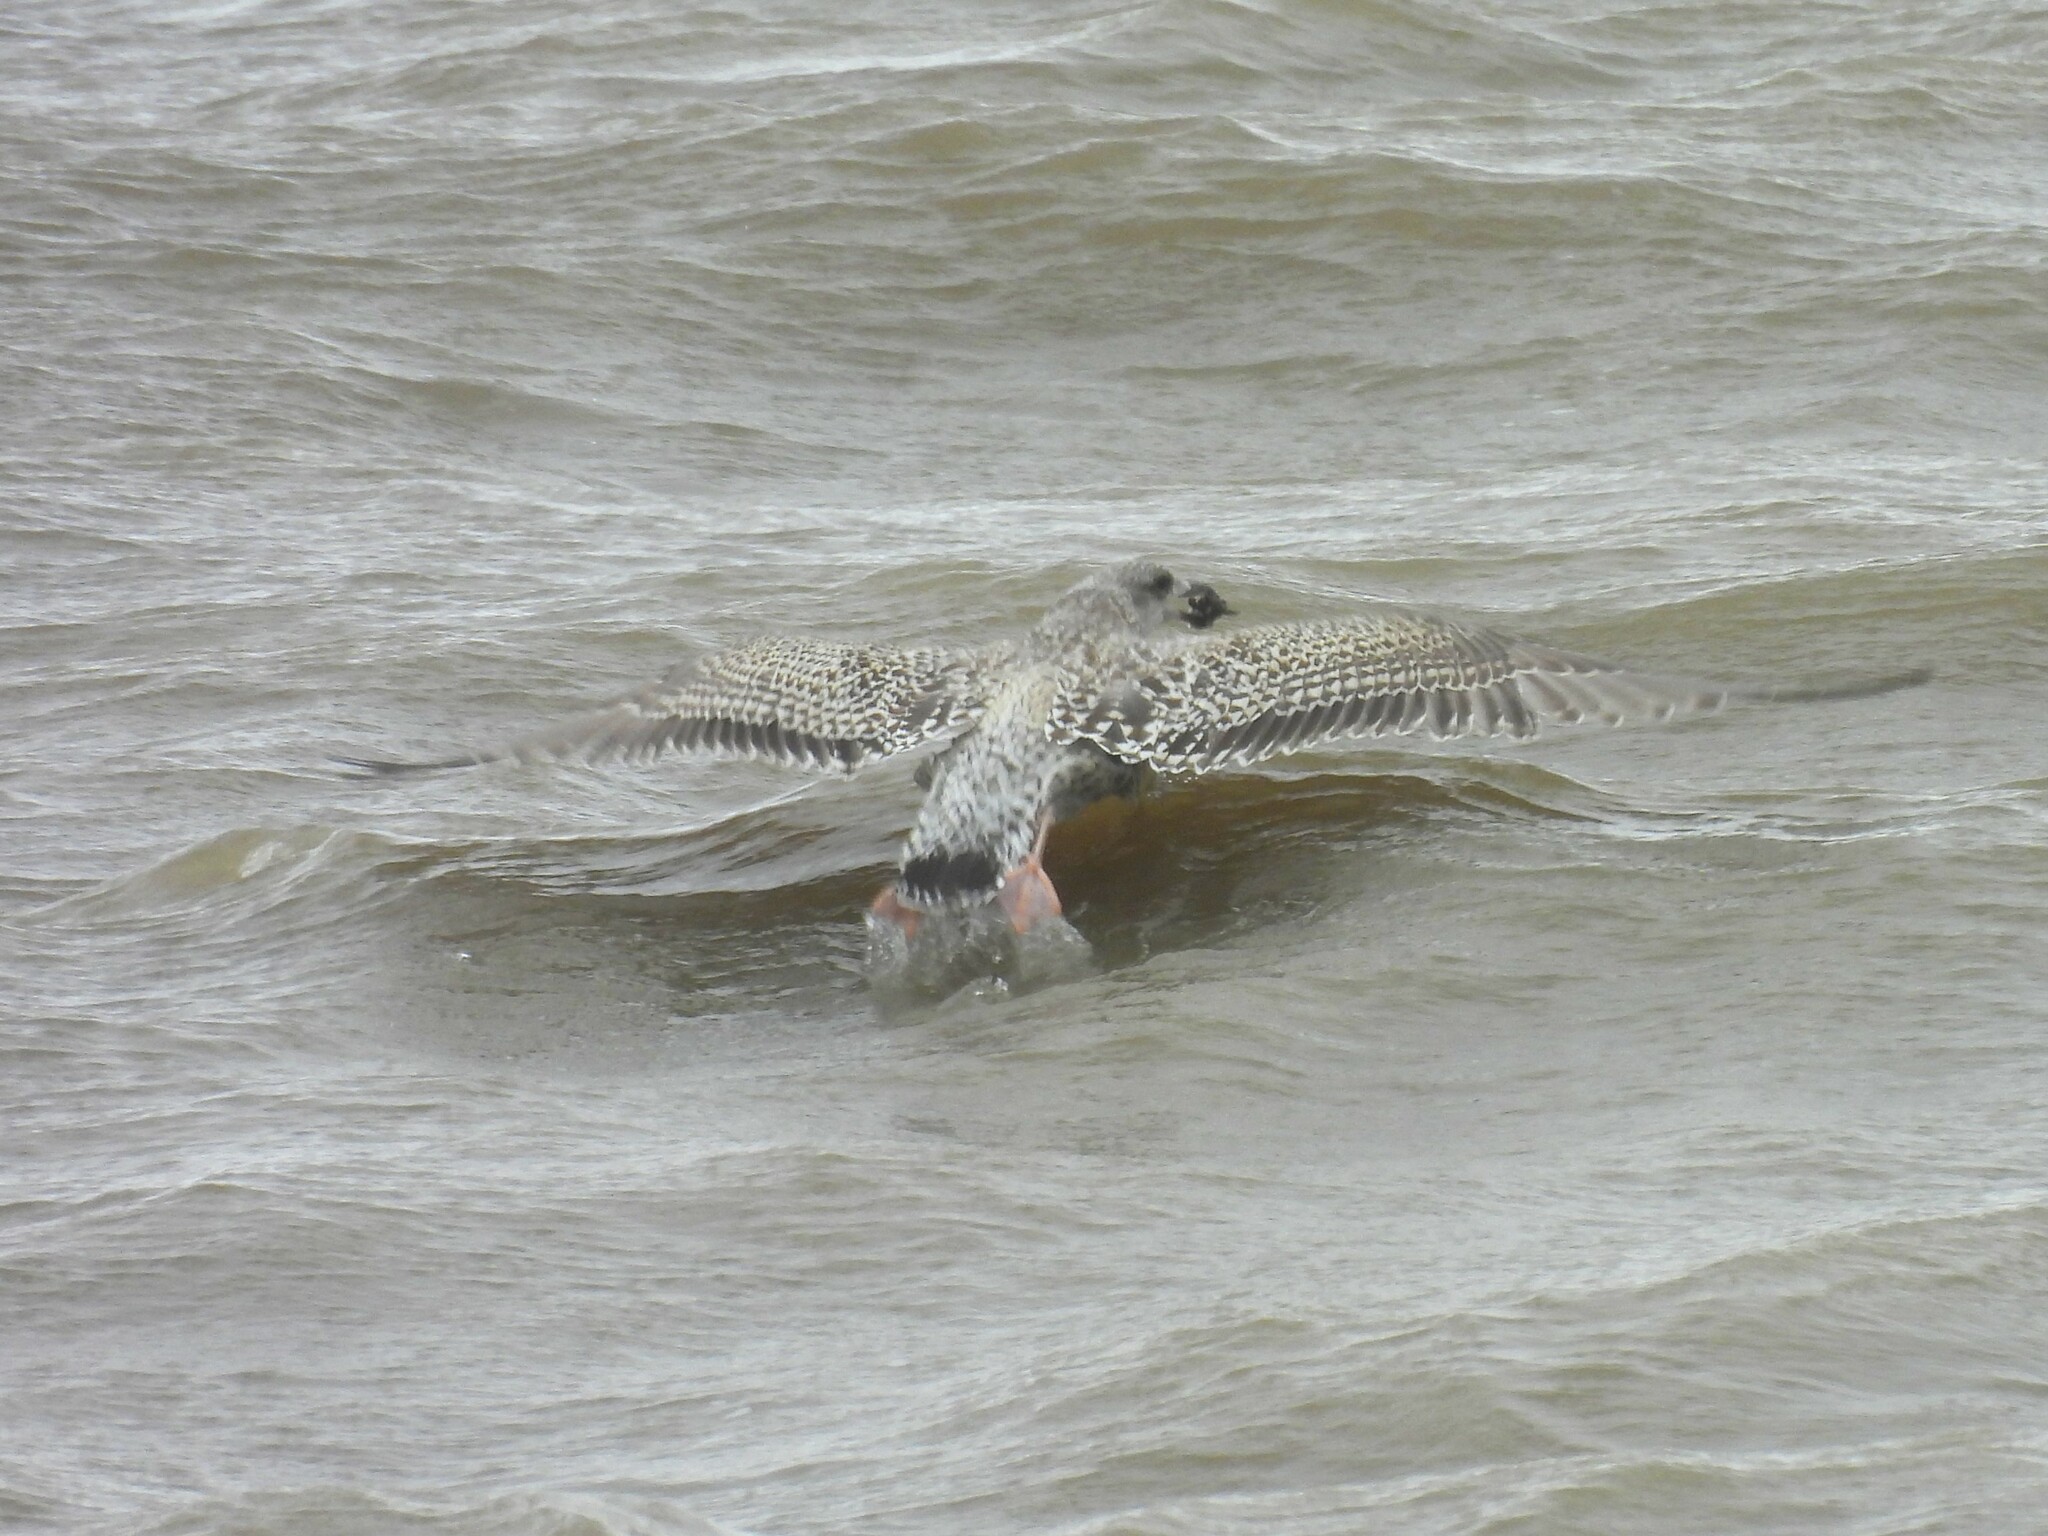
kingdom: Animalia
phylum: Chordata
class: Aves
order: Charadriiformes
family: Laridae
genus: Larus
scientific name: Larus marinus
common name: Great black-backed gull
